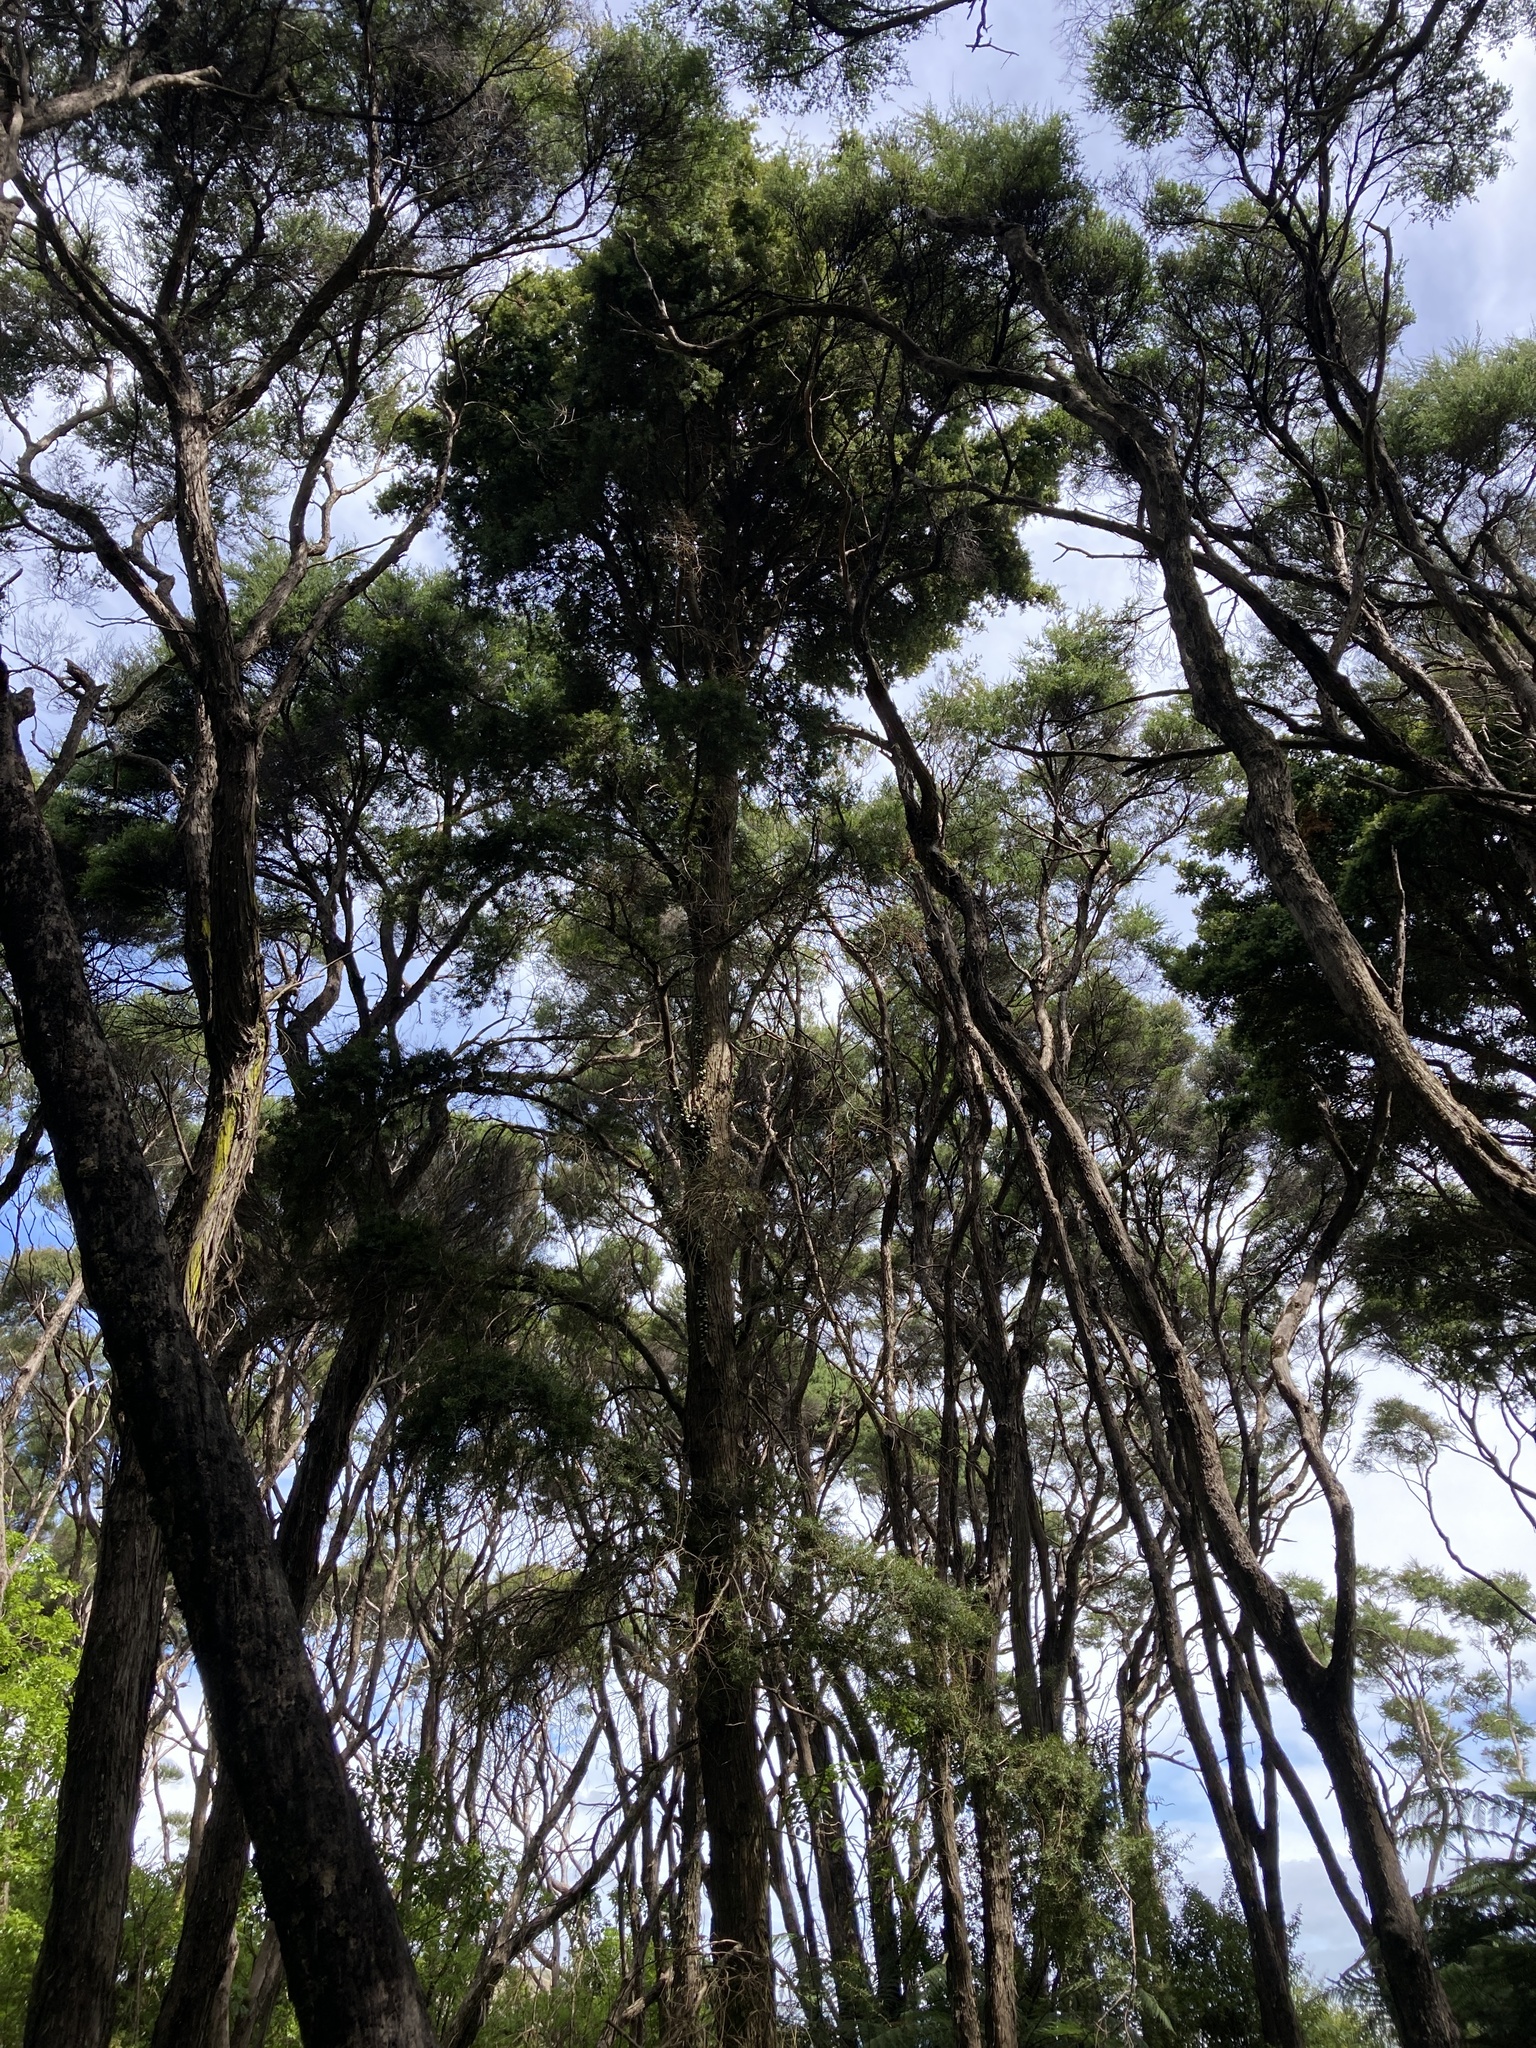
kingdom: Plantae
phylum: Tracheophyta
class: Pinopsida
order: Pinales
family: Podocarpaceae
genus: Podocarpus
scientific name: Podocarpus totara
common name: Totara
